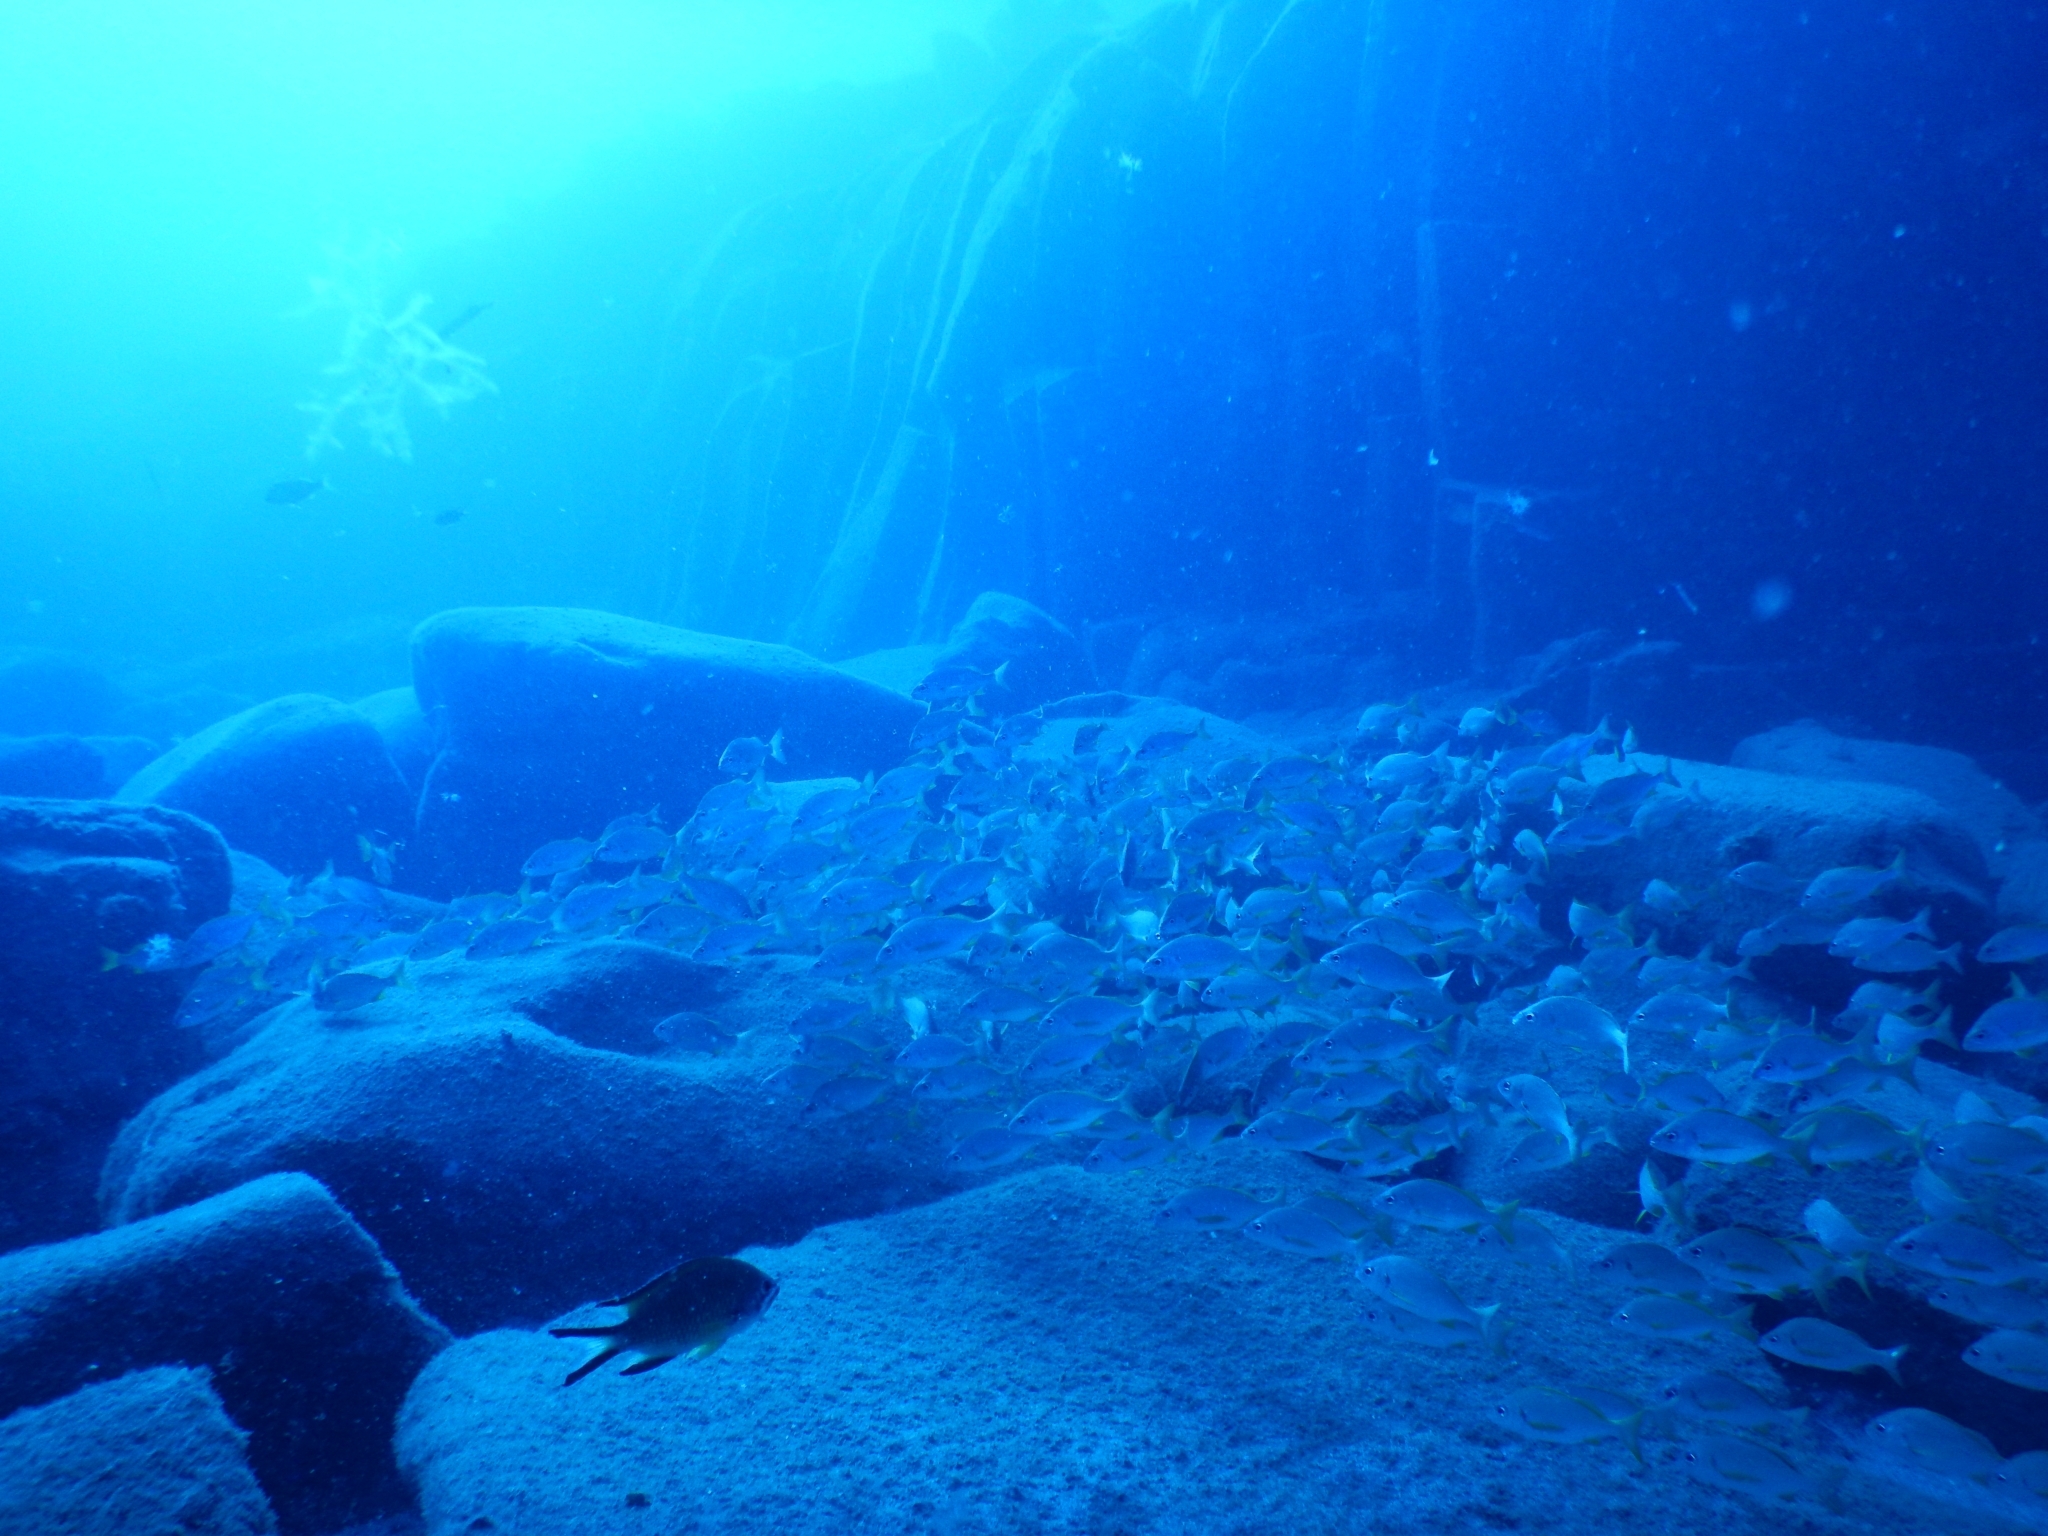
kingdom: Animalia
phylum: Chordata
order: Perciformes
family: Haemulidae
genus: Pomadasys
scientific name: Pomadasys incisus
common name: Bastard grunt
